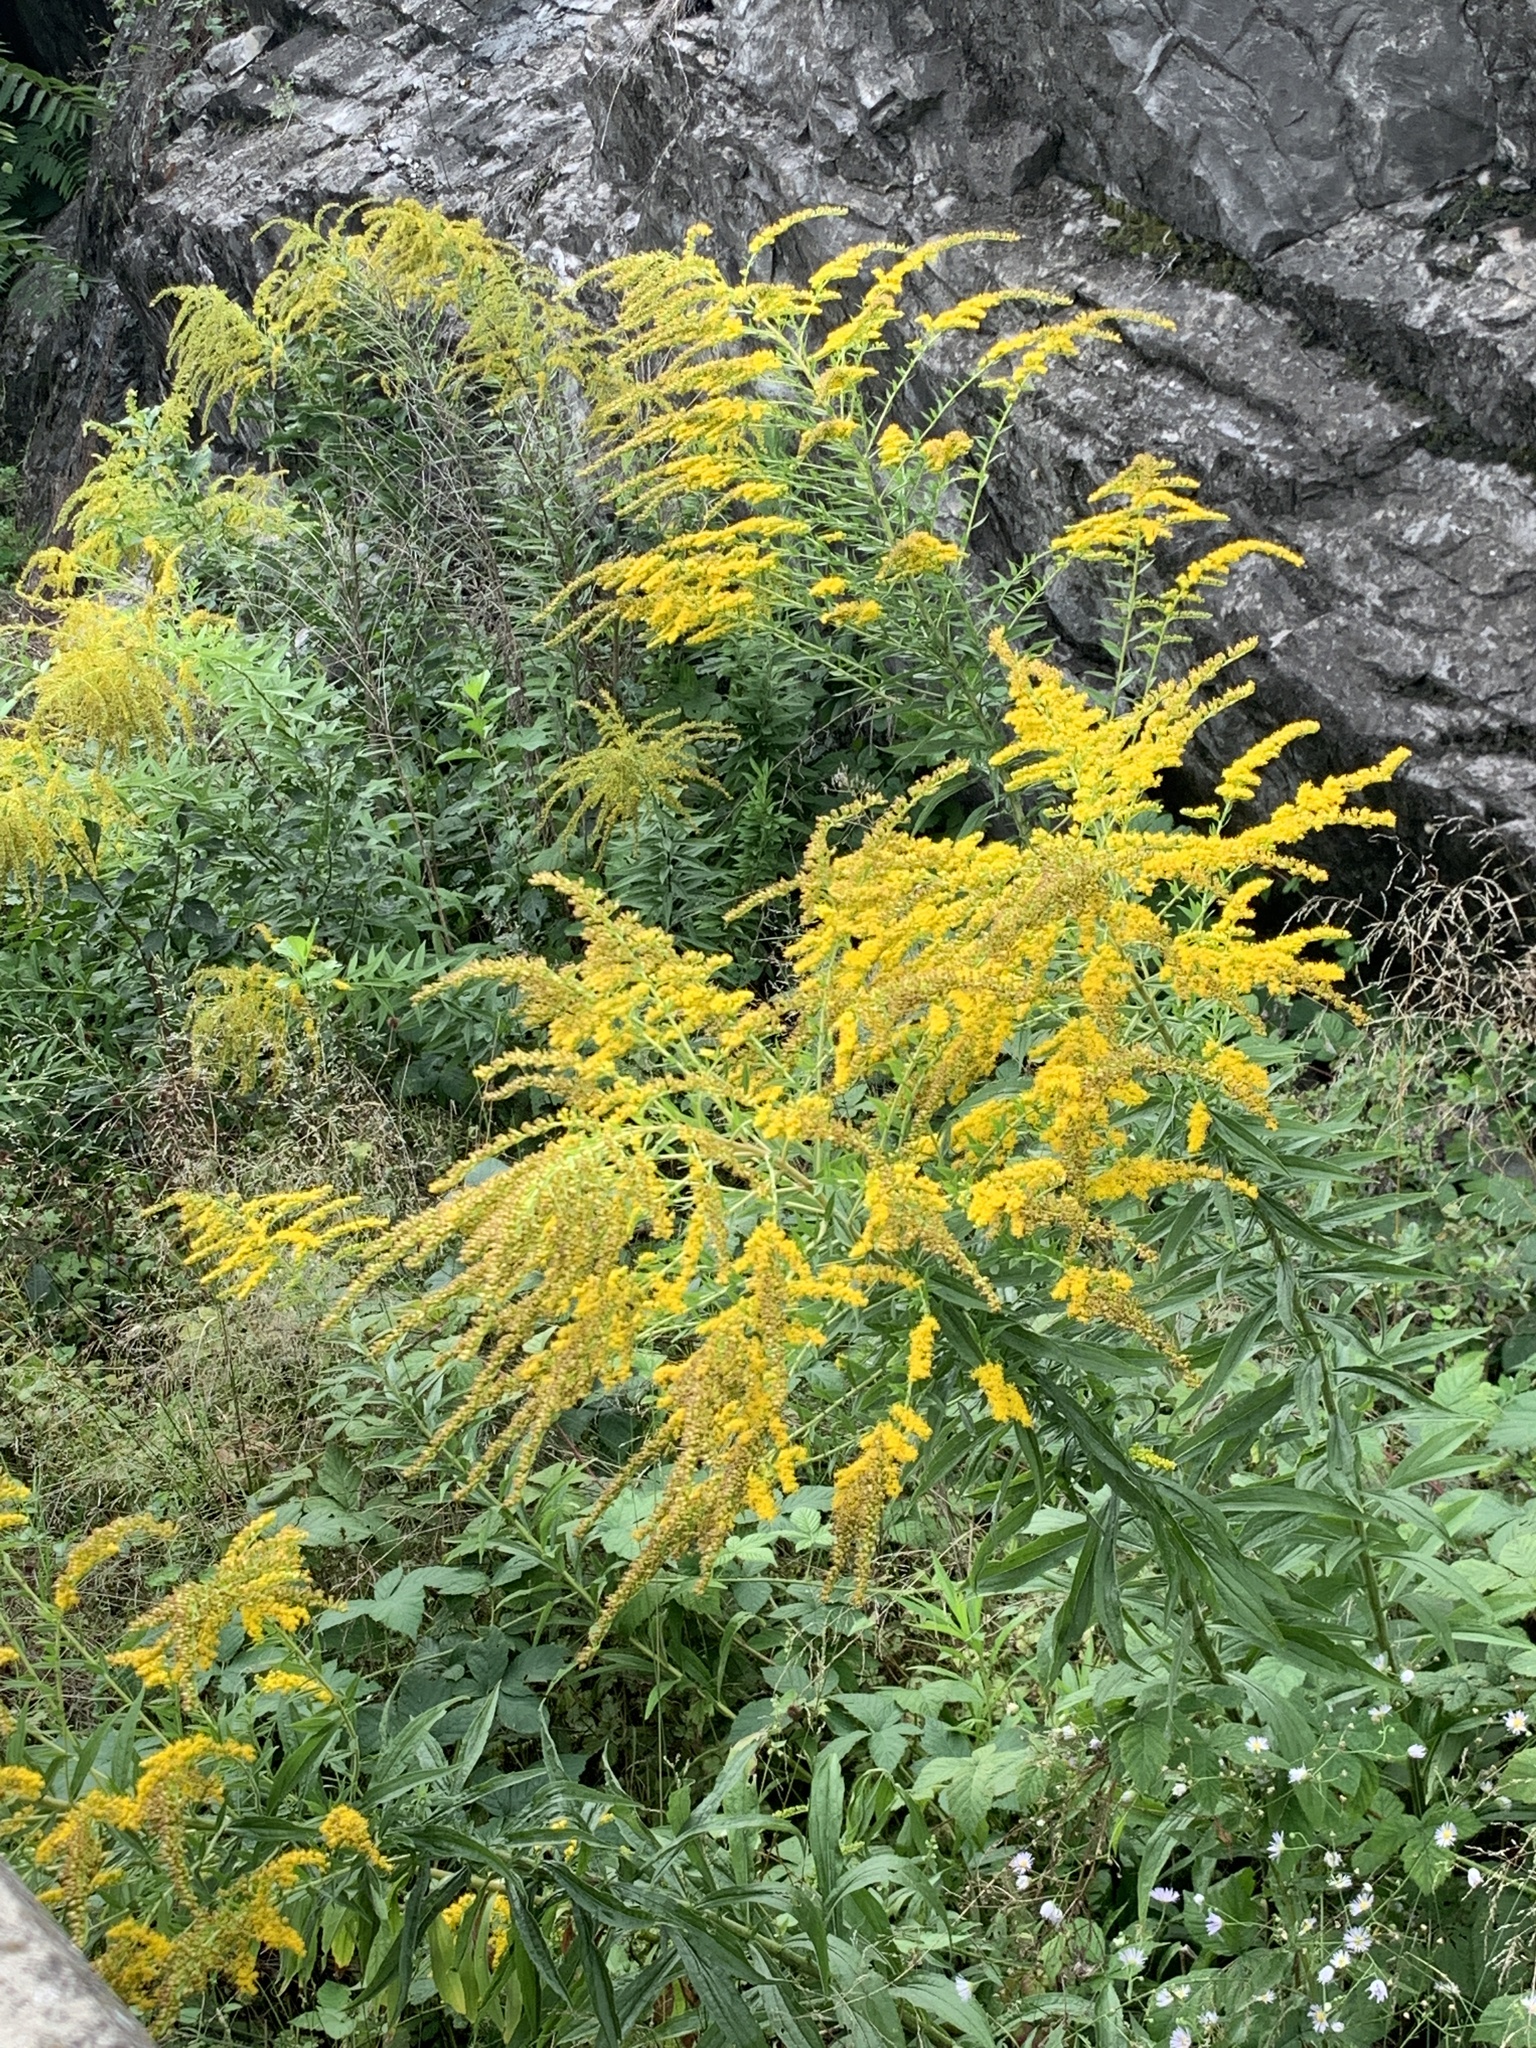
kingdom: Plantae
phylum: Tracheophyta
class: Magnoliopsida
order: Asterales
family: Asteraceae
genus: Solidago
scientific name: Solidago canadensis
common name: Canada goldenrod
